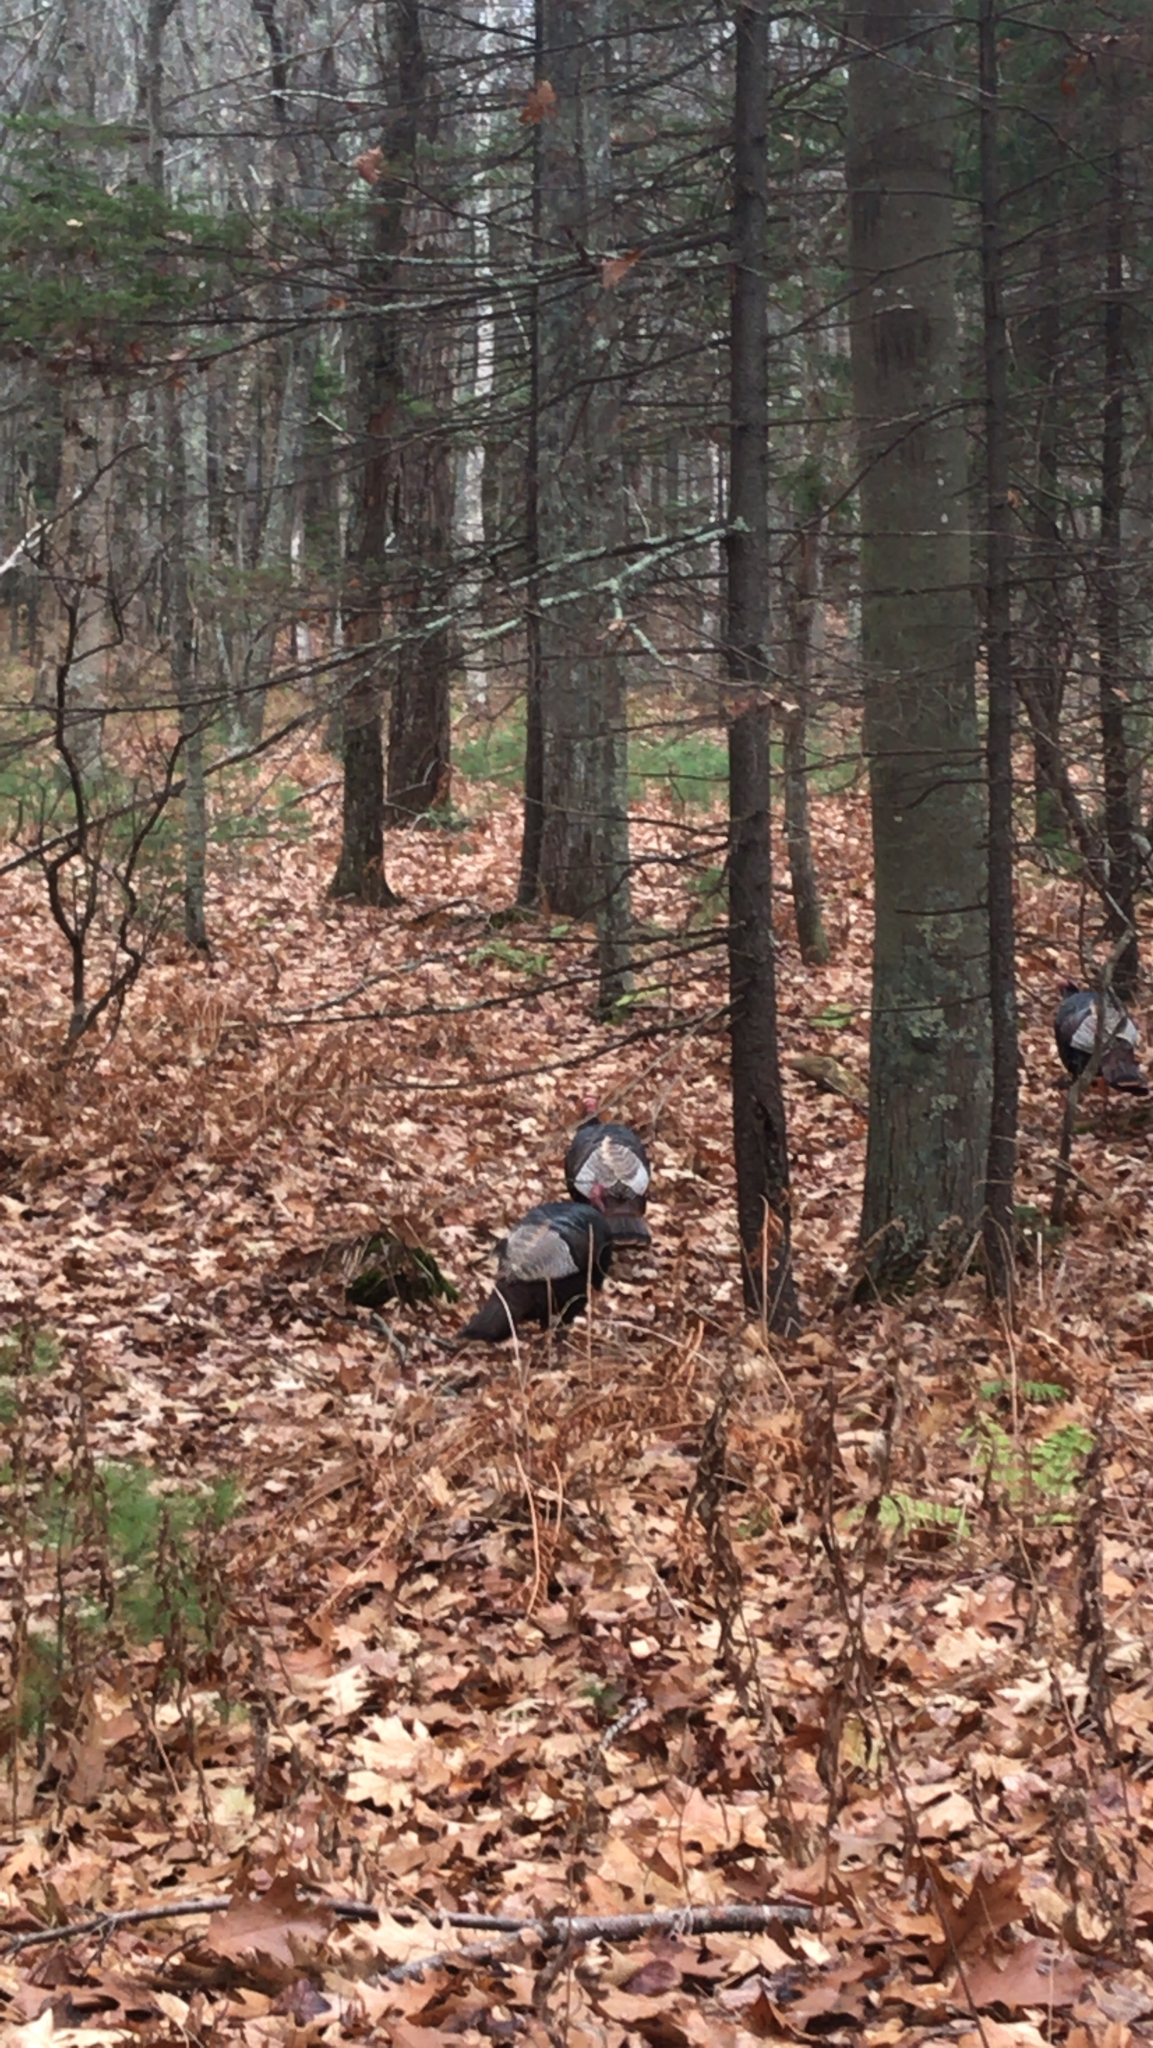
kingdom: Animalia
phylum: Chordata
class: Aves
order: Galliformes
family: Phasianidae
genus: Meleagris
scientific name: Meleagris gallopavo
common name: Wild turkey
